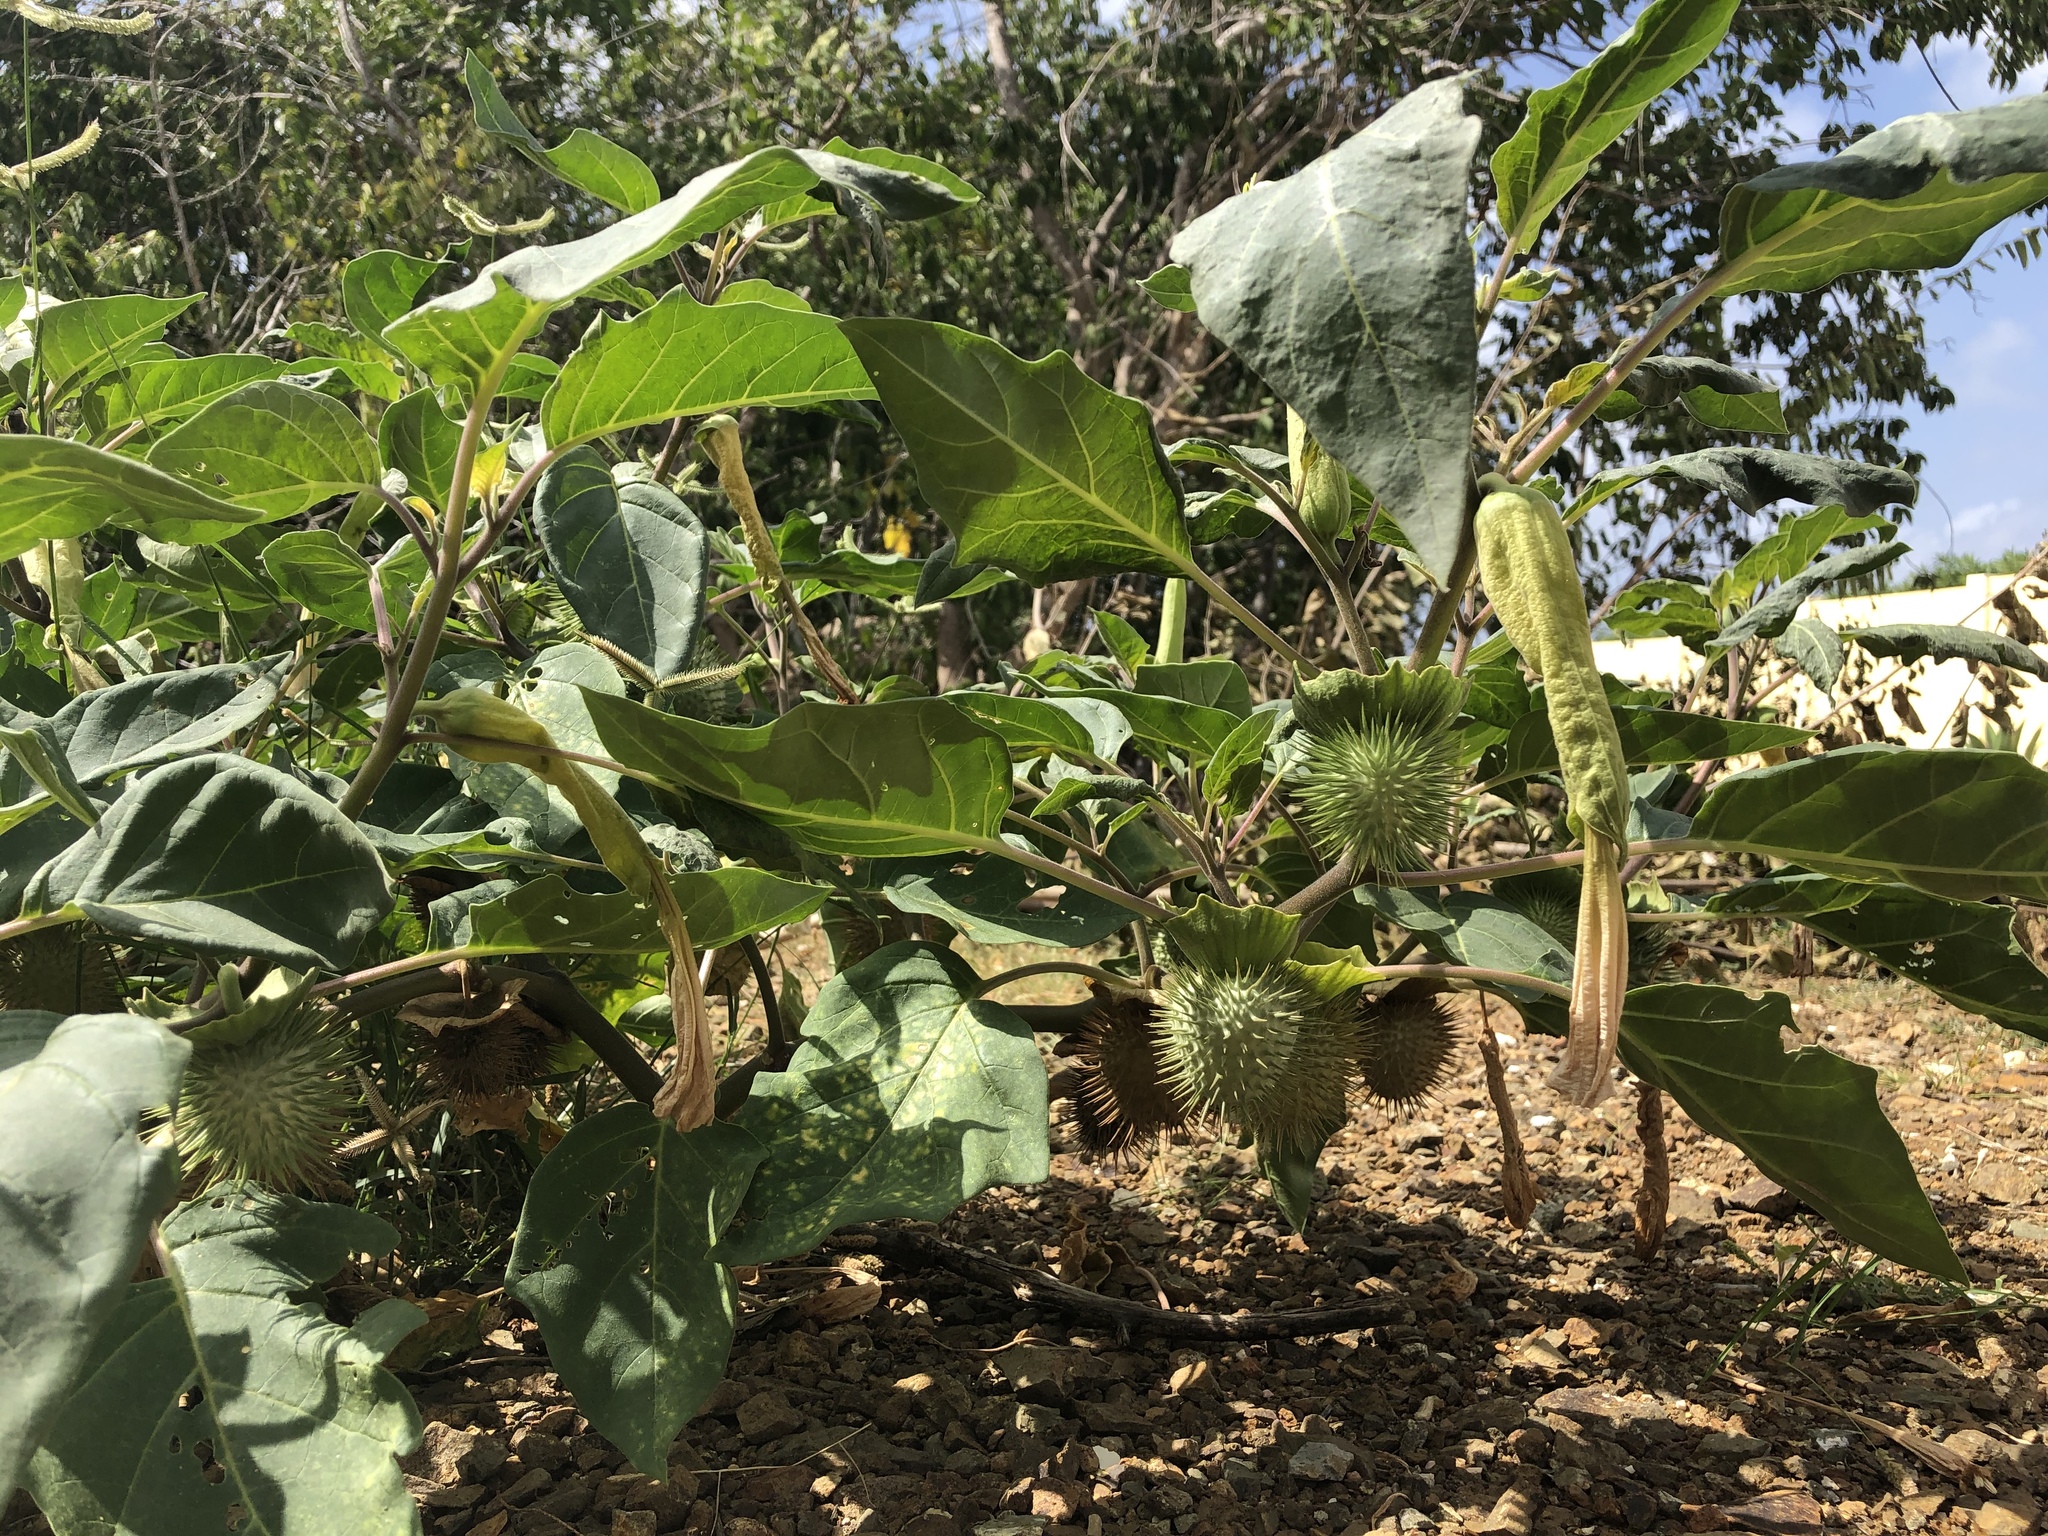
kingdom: Plantae
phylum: Tracheophyta
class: Magnoliopsida
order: Solanales
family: Solanaceae
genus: Datura
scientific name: Datura innoxia
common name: Downy thorn-apple
